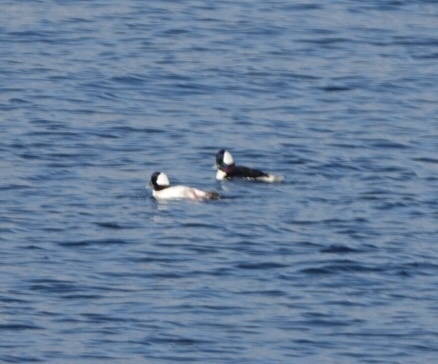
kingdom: Animalia
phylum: Chordata
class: Aves
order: Anseriformes
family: Anatidae
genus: Bucephala
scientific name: Bucephala albeola
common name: Bufflehead
